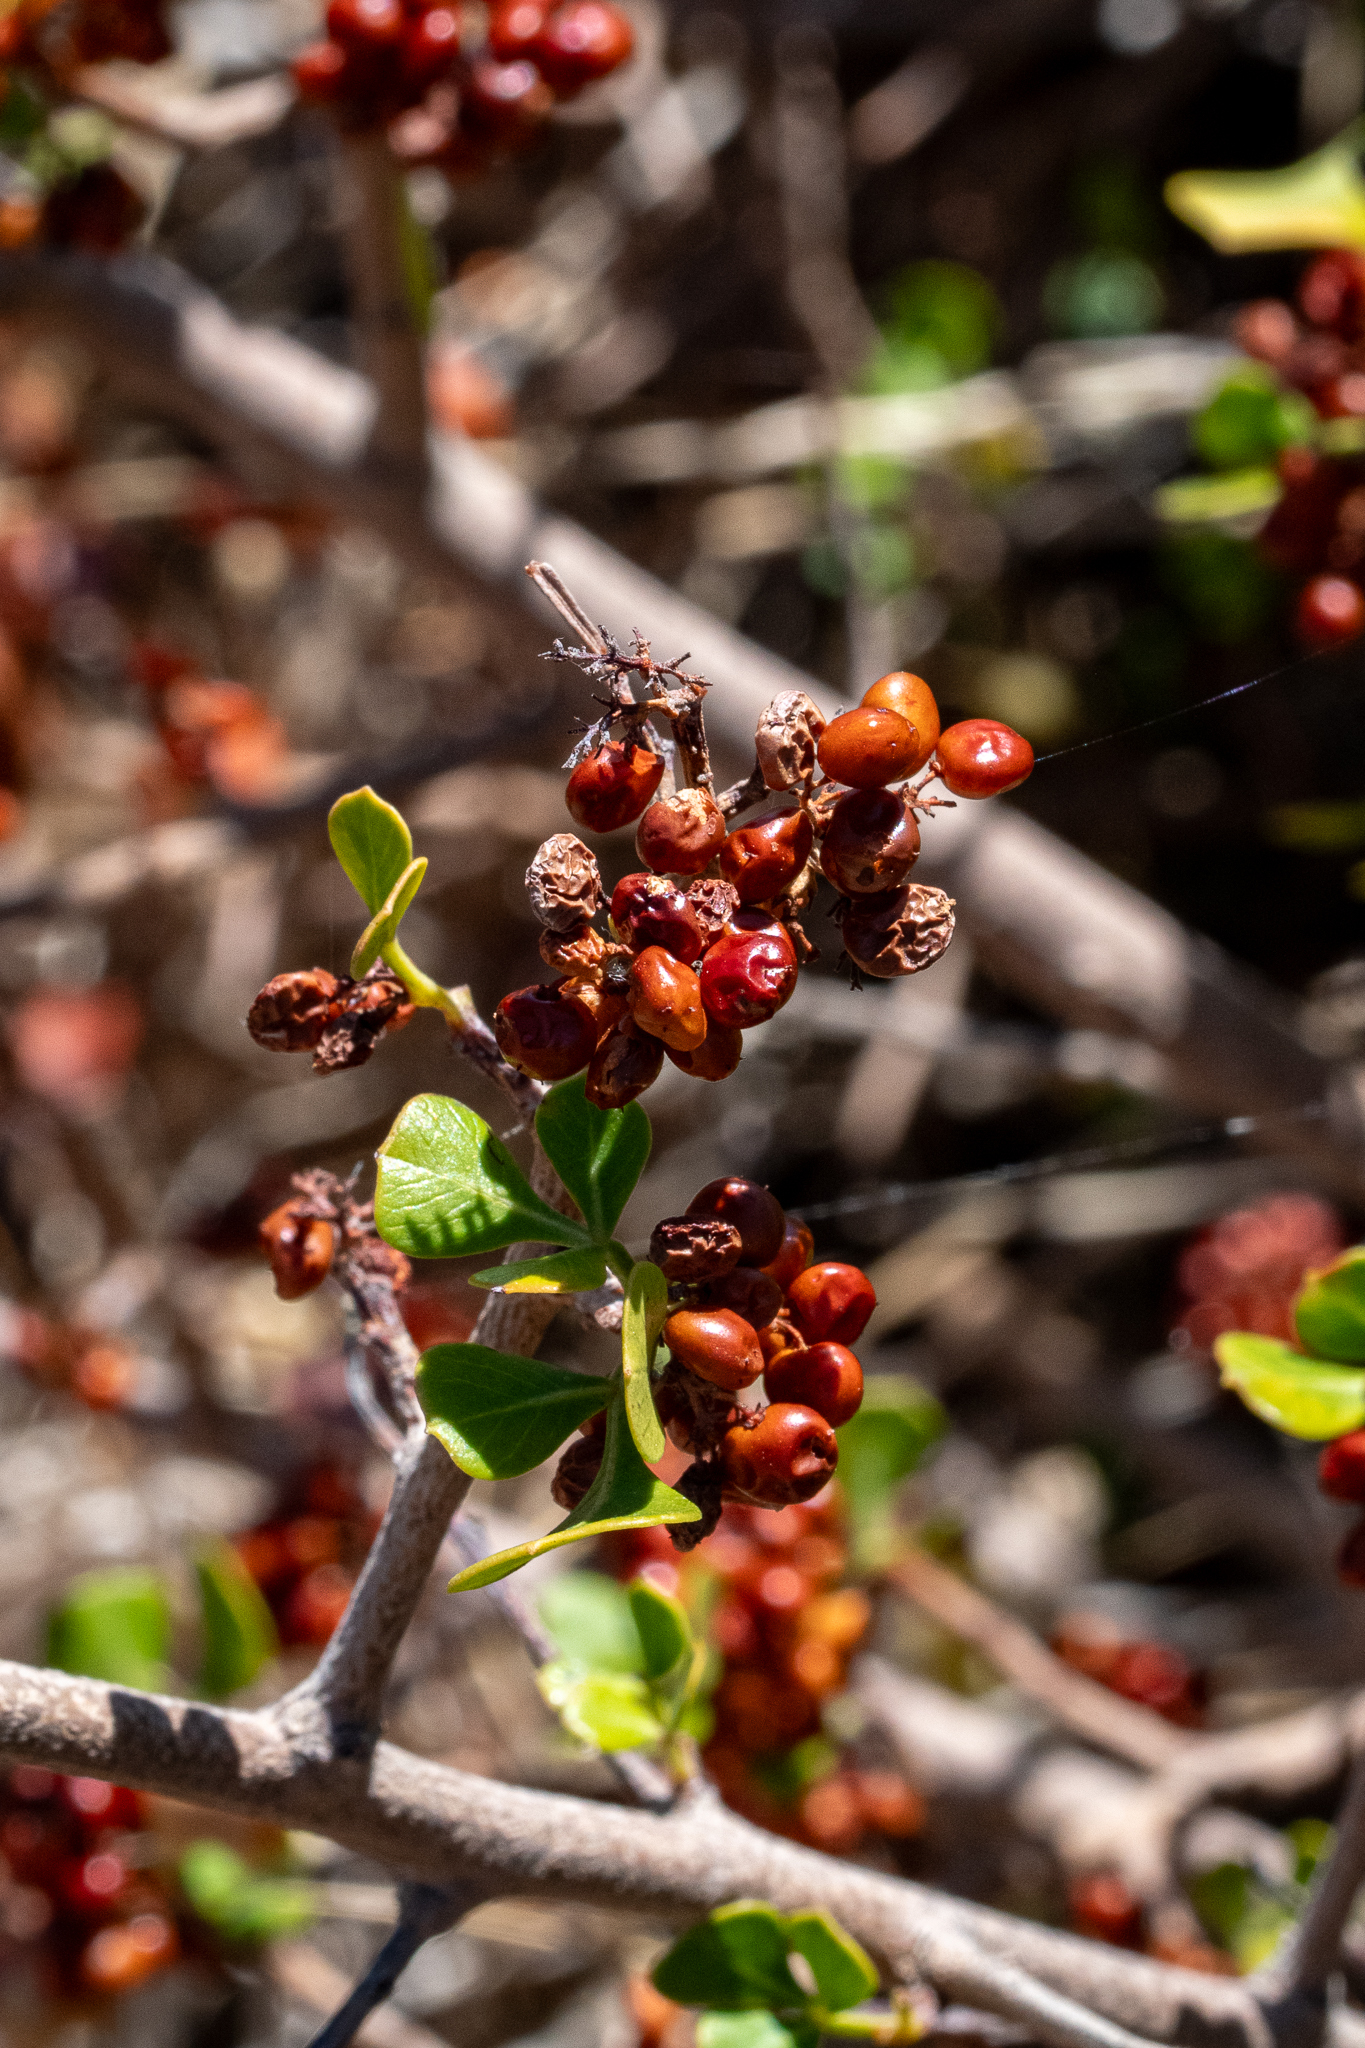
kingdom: Plantae
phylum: Tracheophyta
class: Magnoliopsida
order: Sapindales
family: Anacardiaceae
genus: Searsia
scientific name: Searsia glauca
